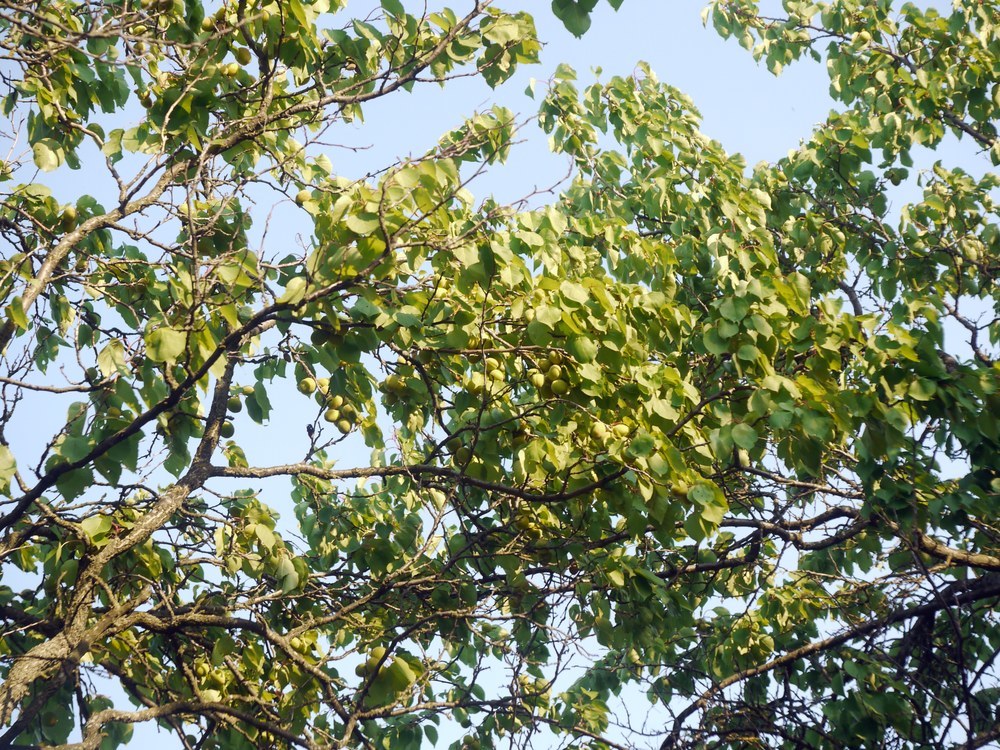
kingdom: Plantae
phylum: Tracheophyta
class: Magnoliopsida
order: Rosales
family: Rosaceae
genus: Prunus
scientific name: Prunus armeniaca
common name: Apricot
